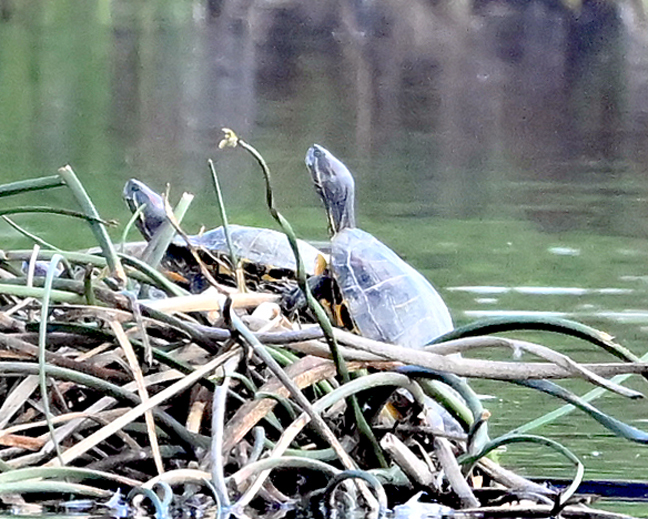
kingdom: Animalia
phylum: Chordata
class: Testudines
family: Emydidae
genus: Trachemys
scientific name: Trachemys scripta
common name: Slider
